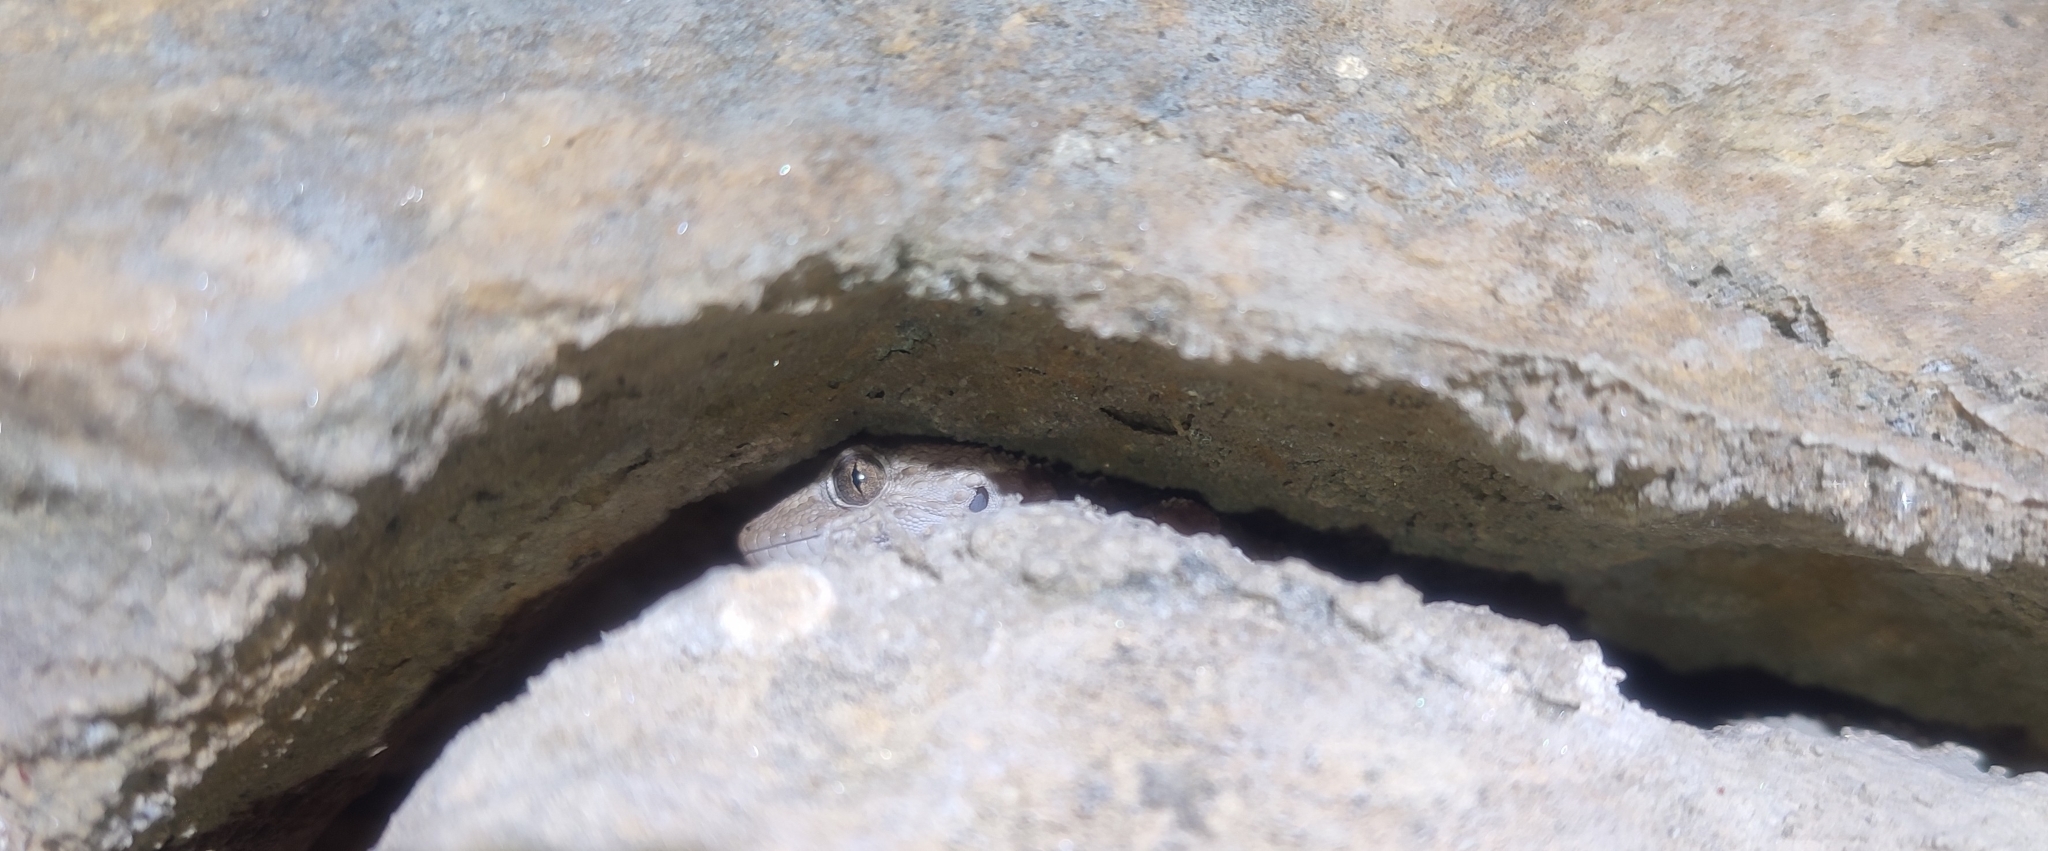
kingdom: Animalia
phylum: Chordata
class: Squamata
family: Phyllodactylidae
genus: Tarentola
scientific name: Tarentola mauritanica
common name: Moorish gecko
